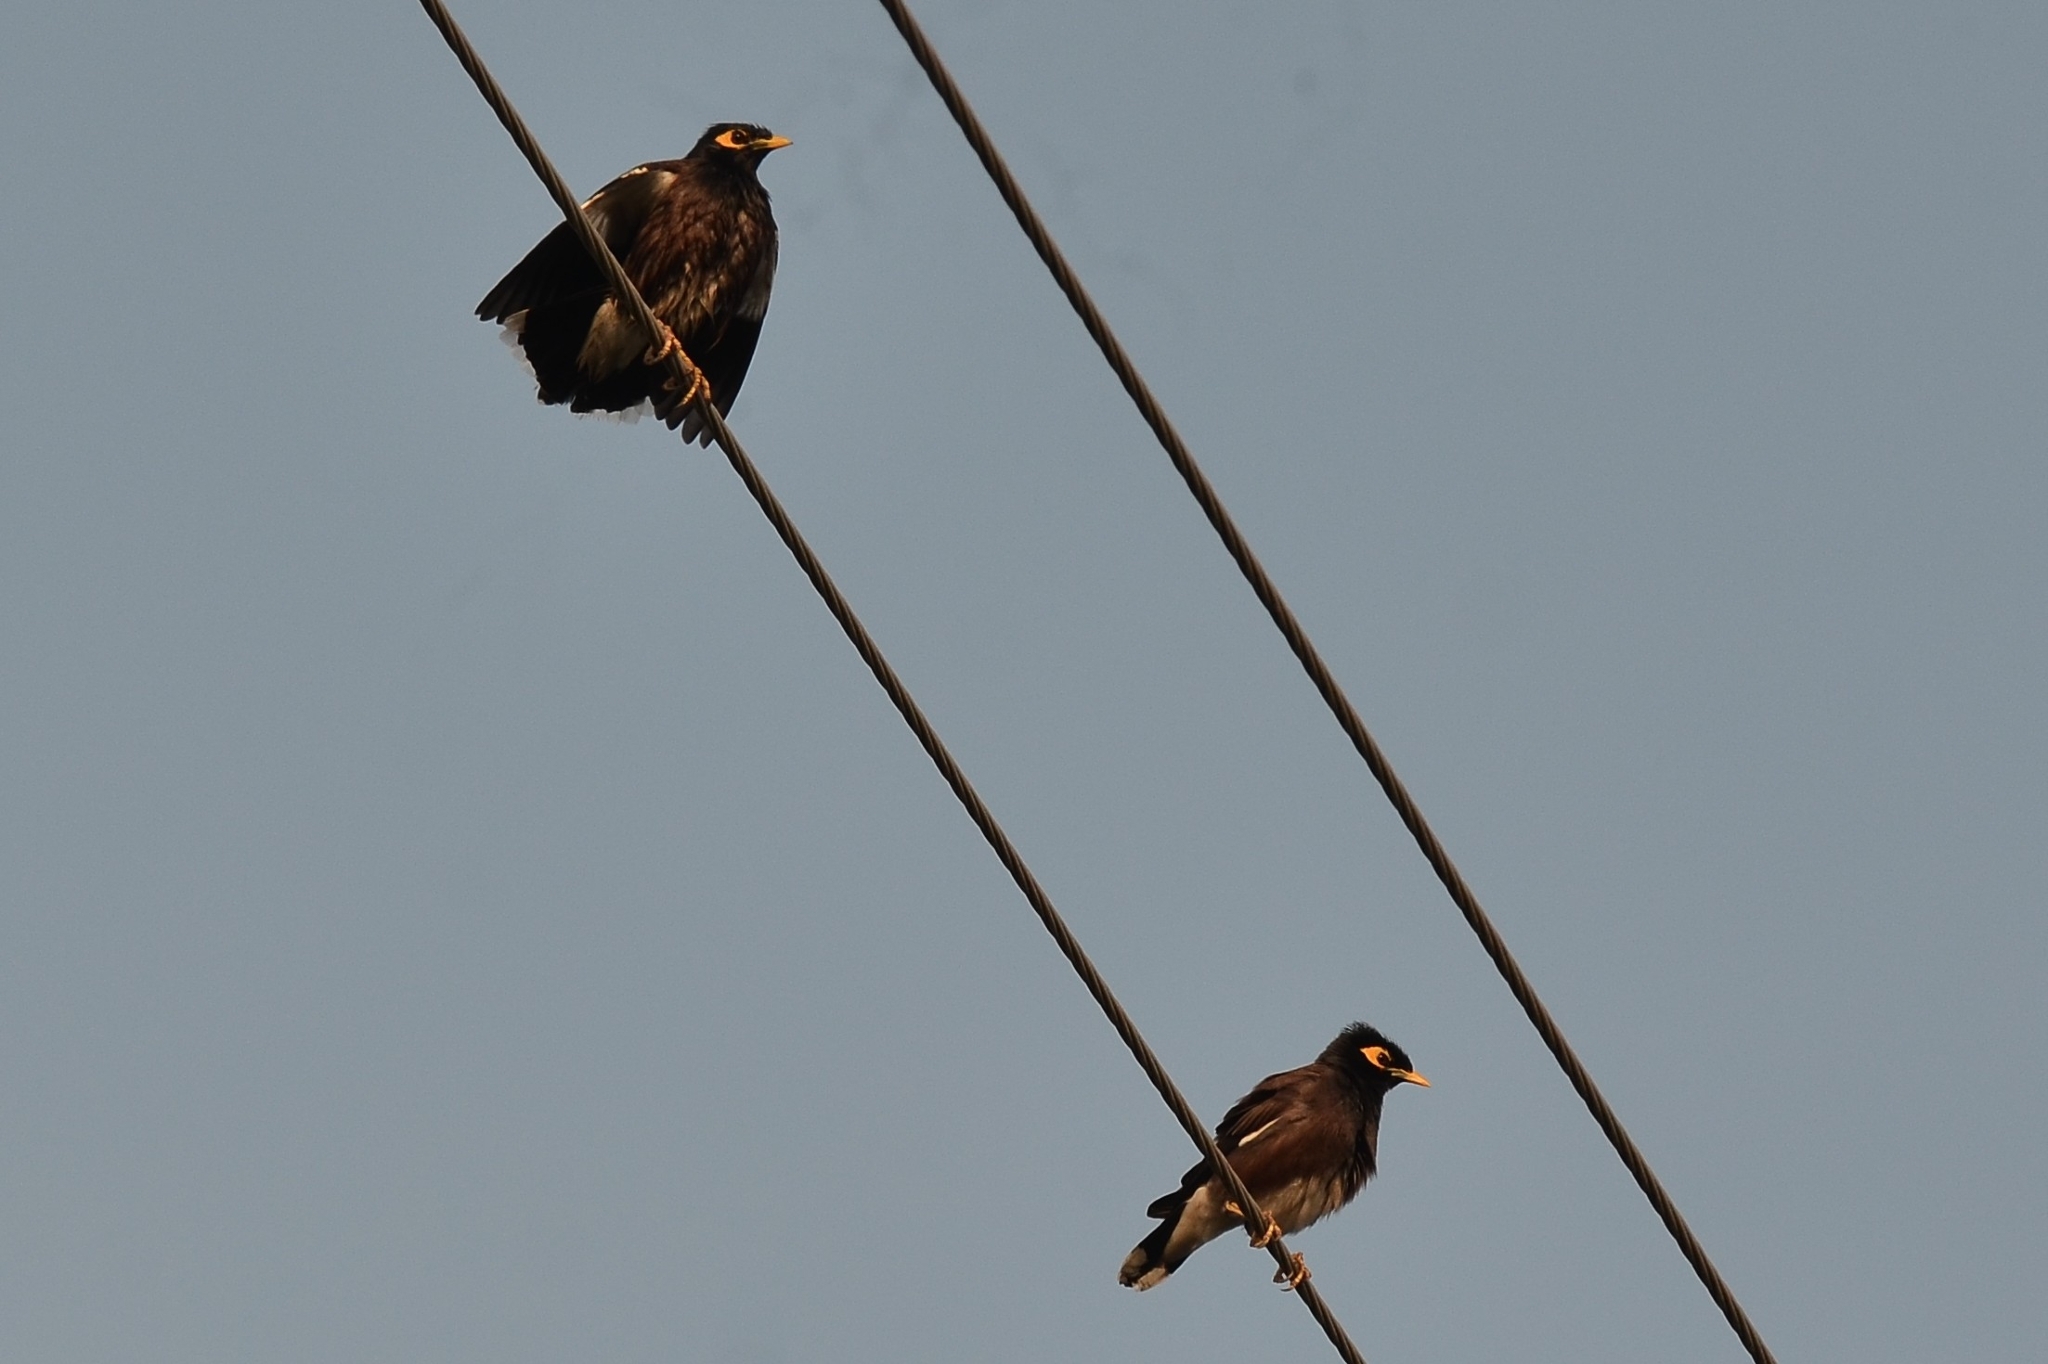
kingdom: Animalia
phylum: Chordata
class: Aves
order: Passeriformes
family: Sturnidae
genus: Acridotheres
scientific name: Acridotheres tristis
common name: Common myna
